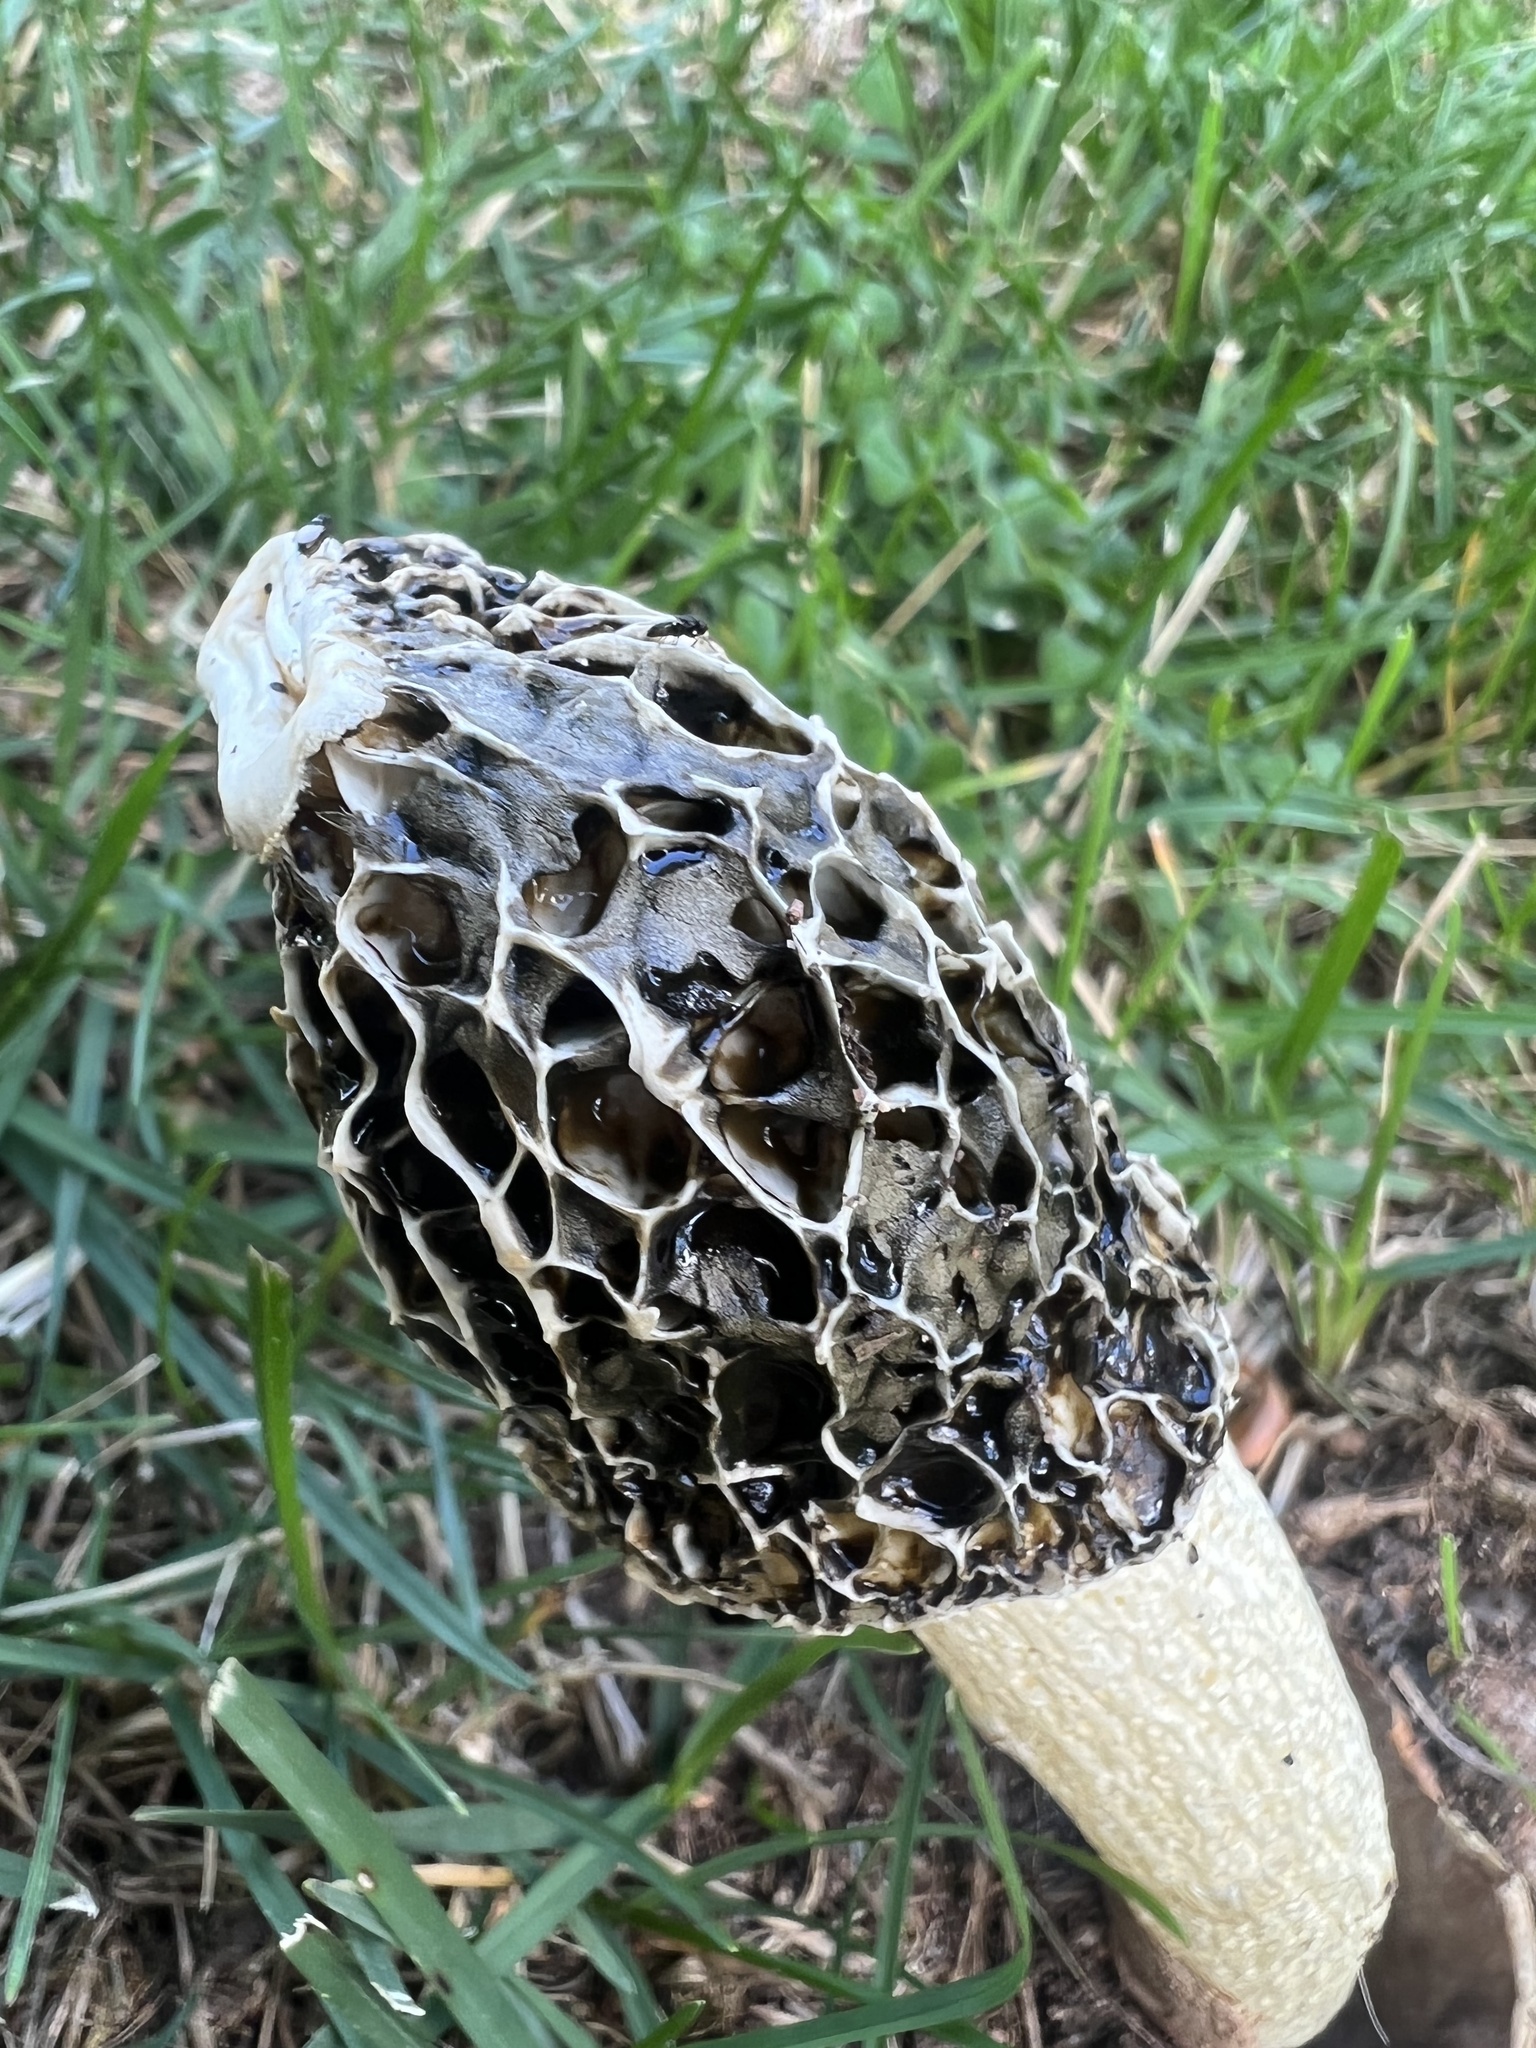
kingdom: Fungi
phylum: Basidiomycota
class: Agaricomycetes
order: Phallales
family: Phallaceae
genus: Phallus
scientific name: Phallus hadriani
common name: Sand stinkhorn
